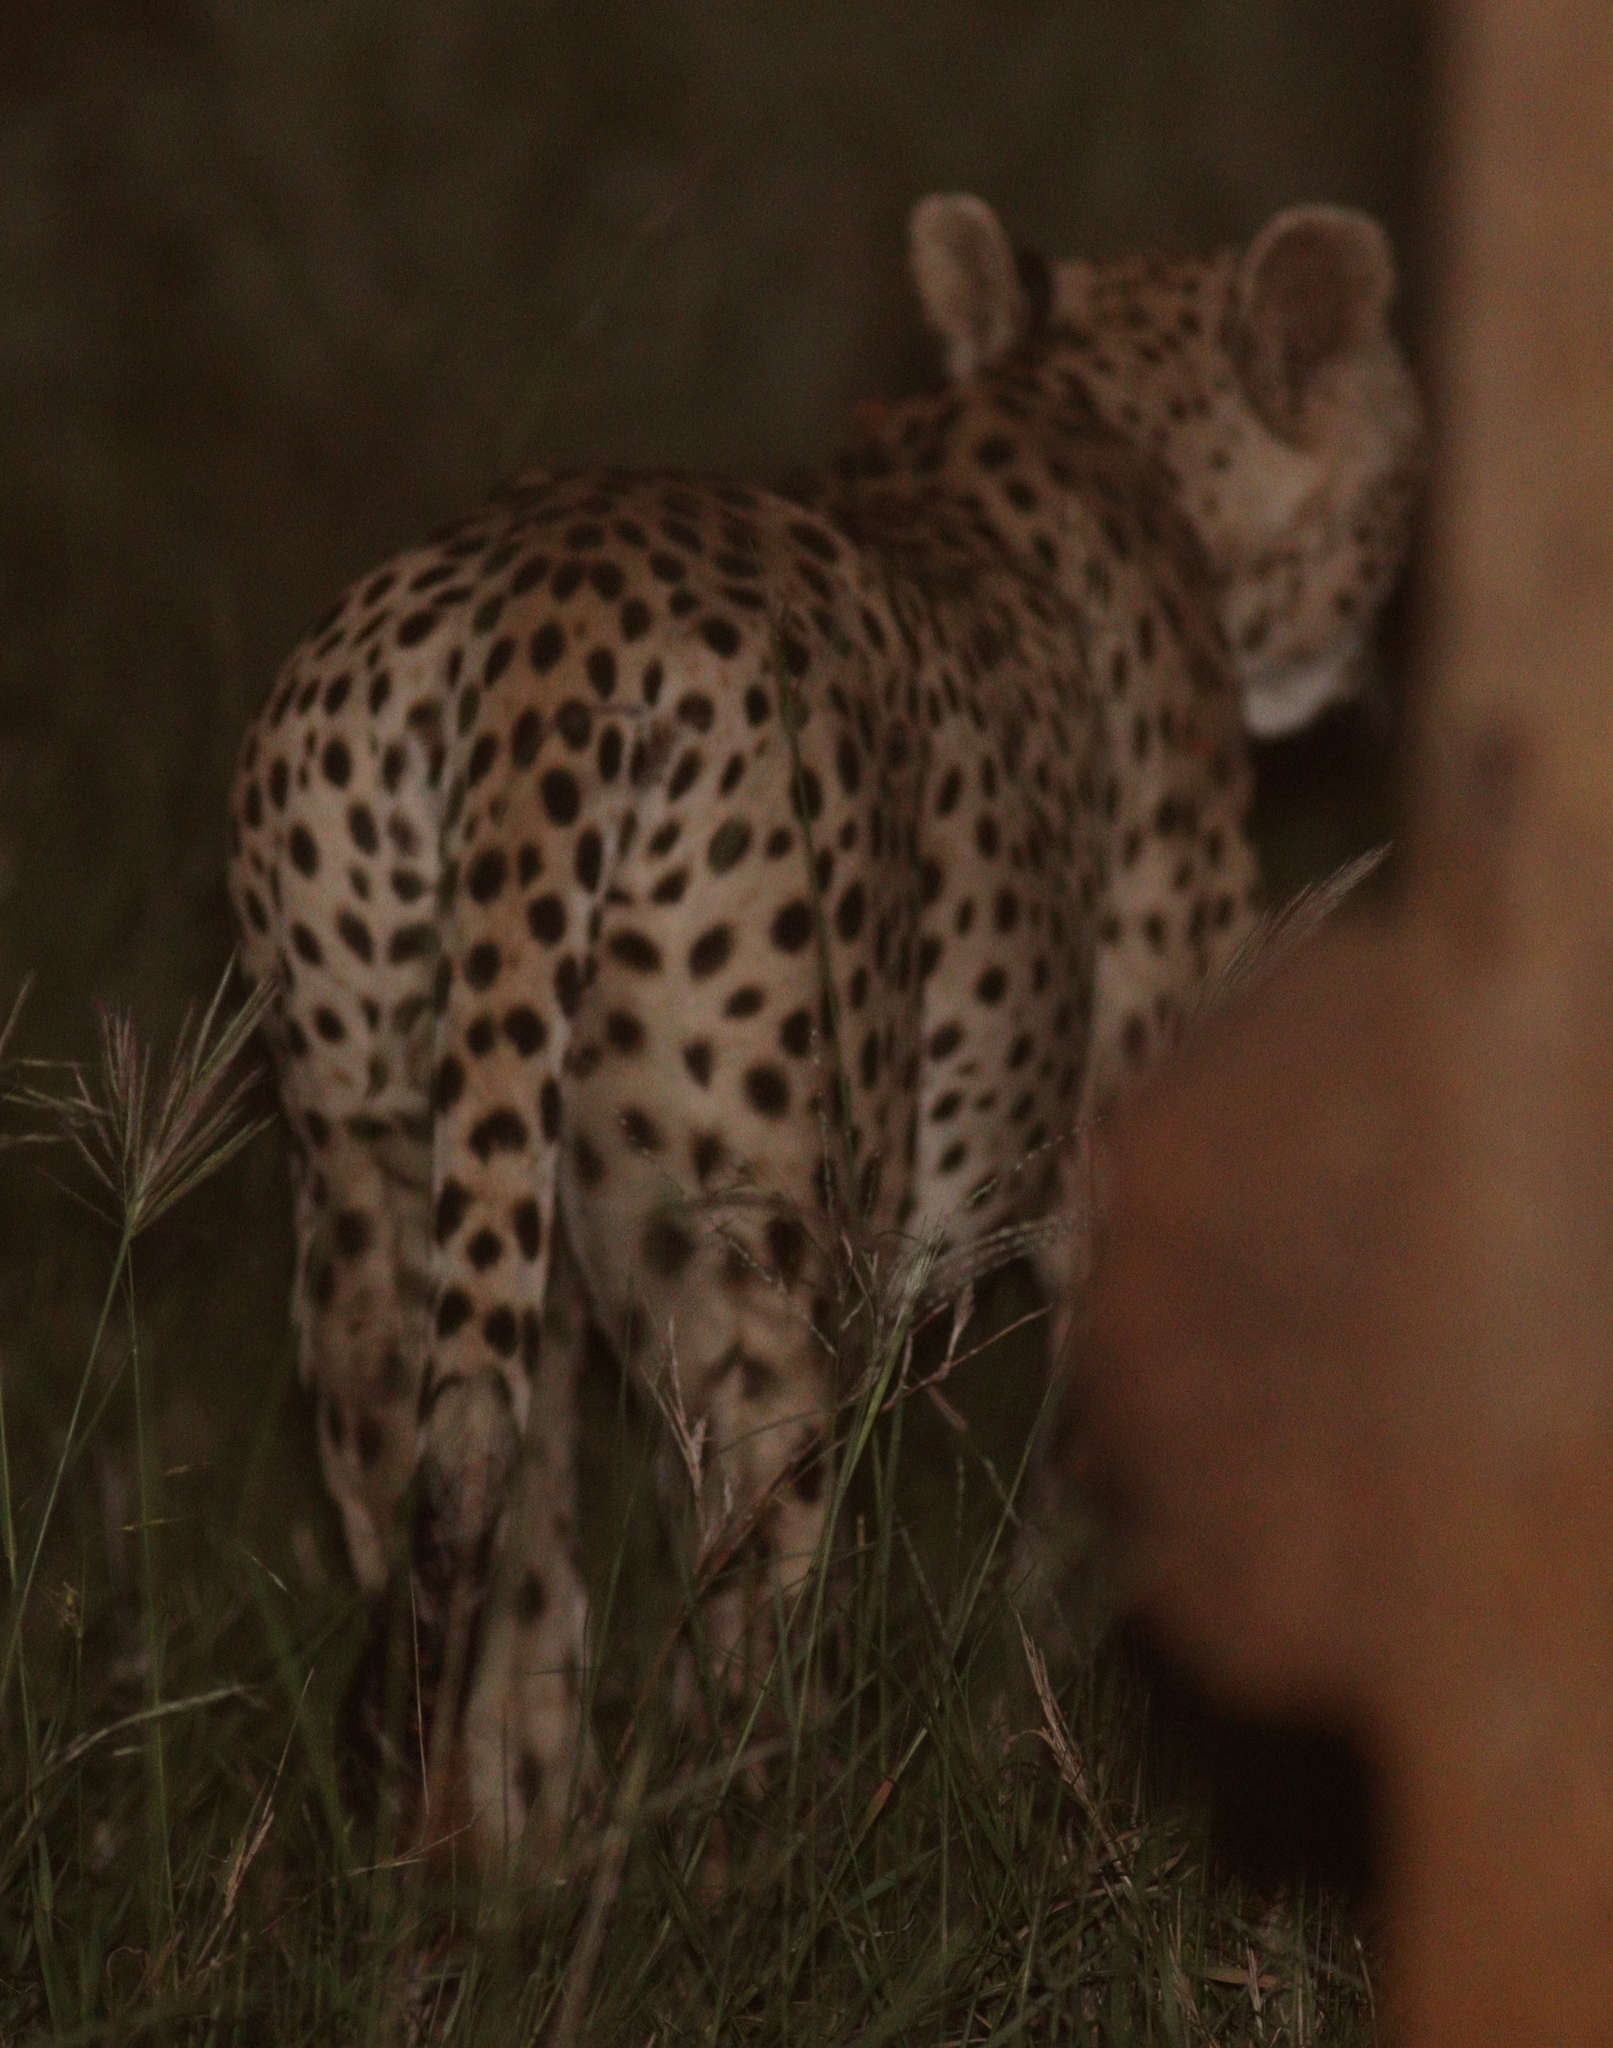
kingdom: Animalia
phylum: Chordata
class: Mammalia
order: Carnivora
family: Felidae
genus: Acinonyx
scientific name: Acinonyx jubatus
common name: Cheetah
